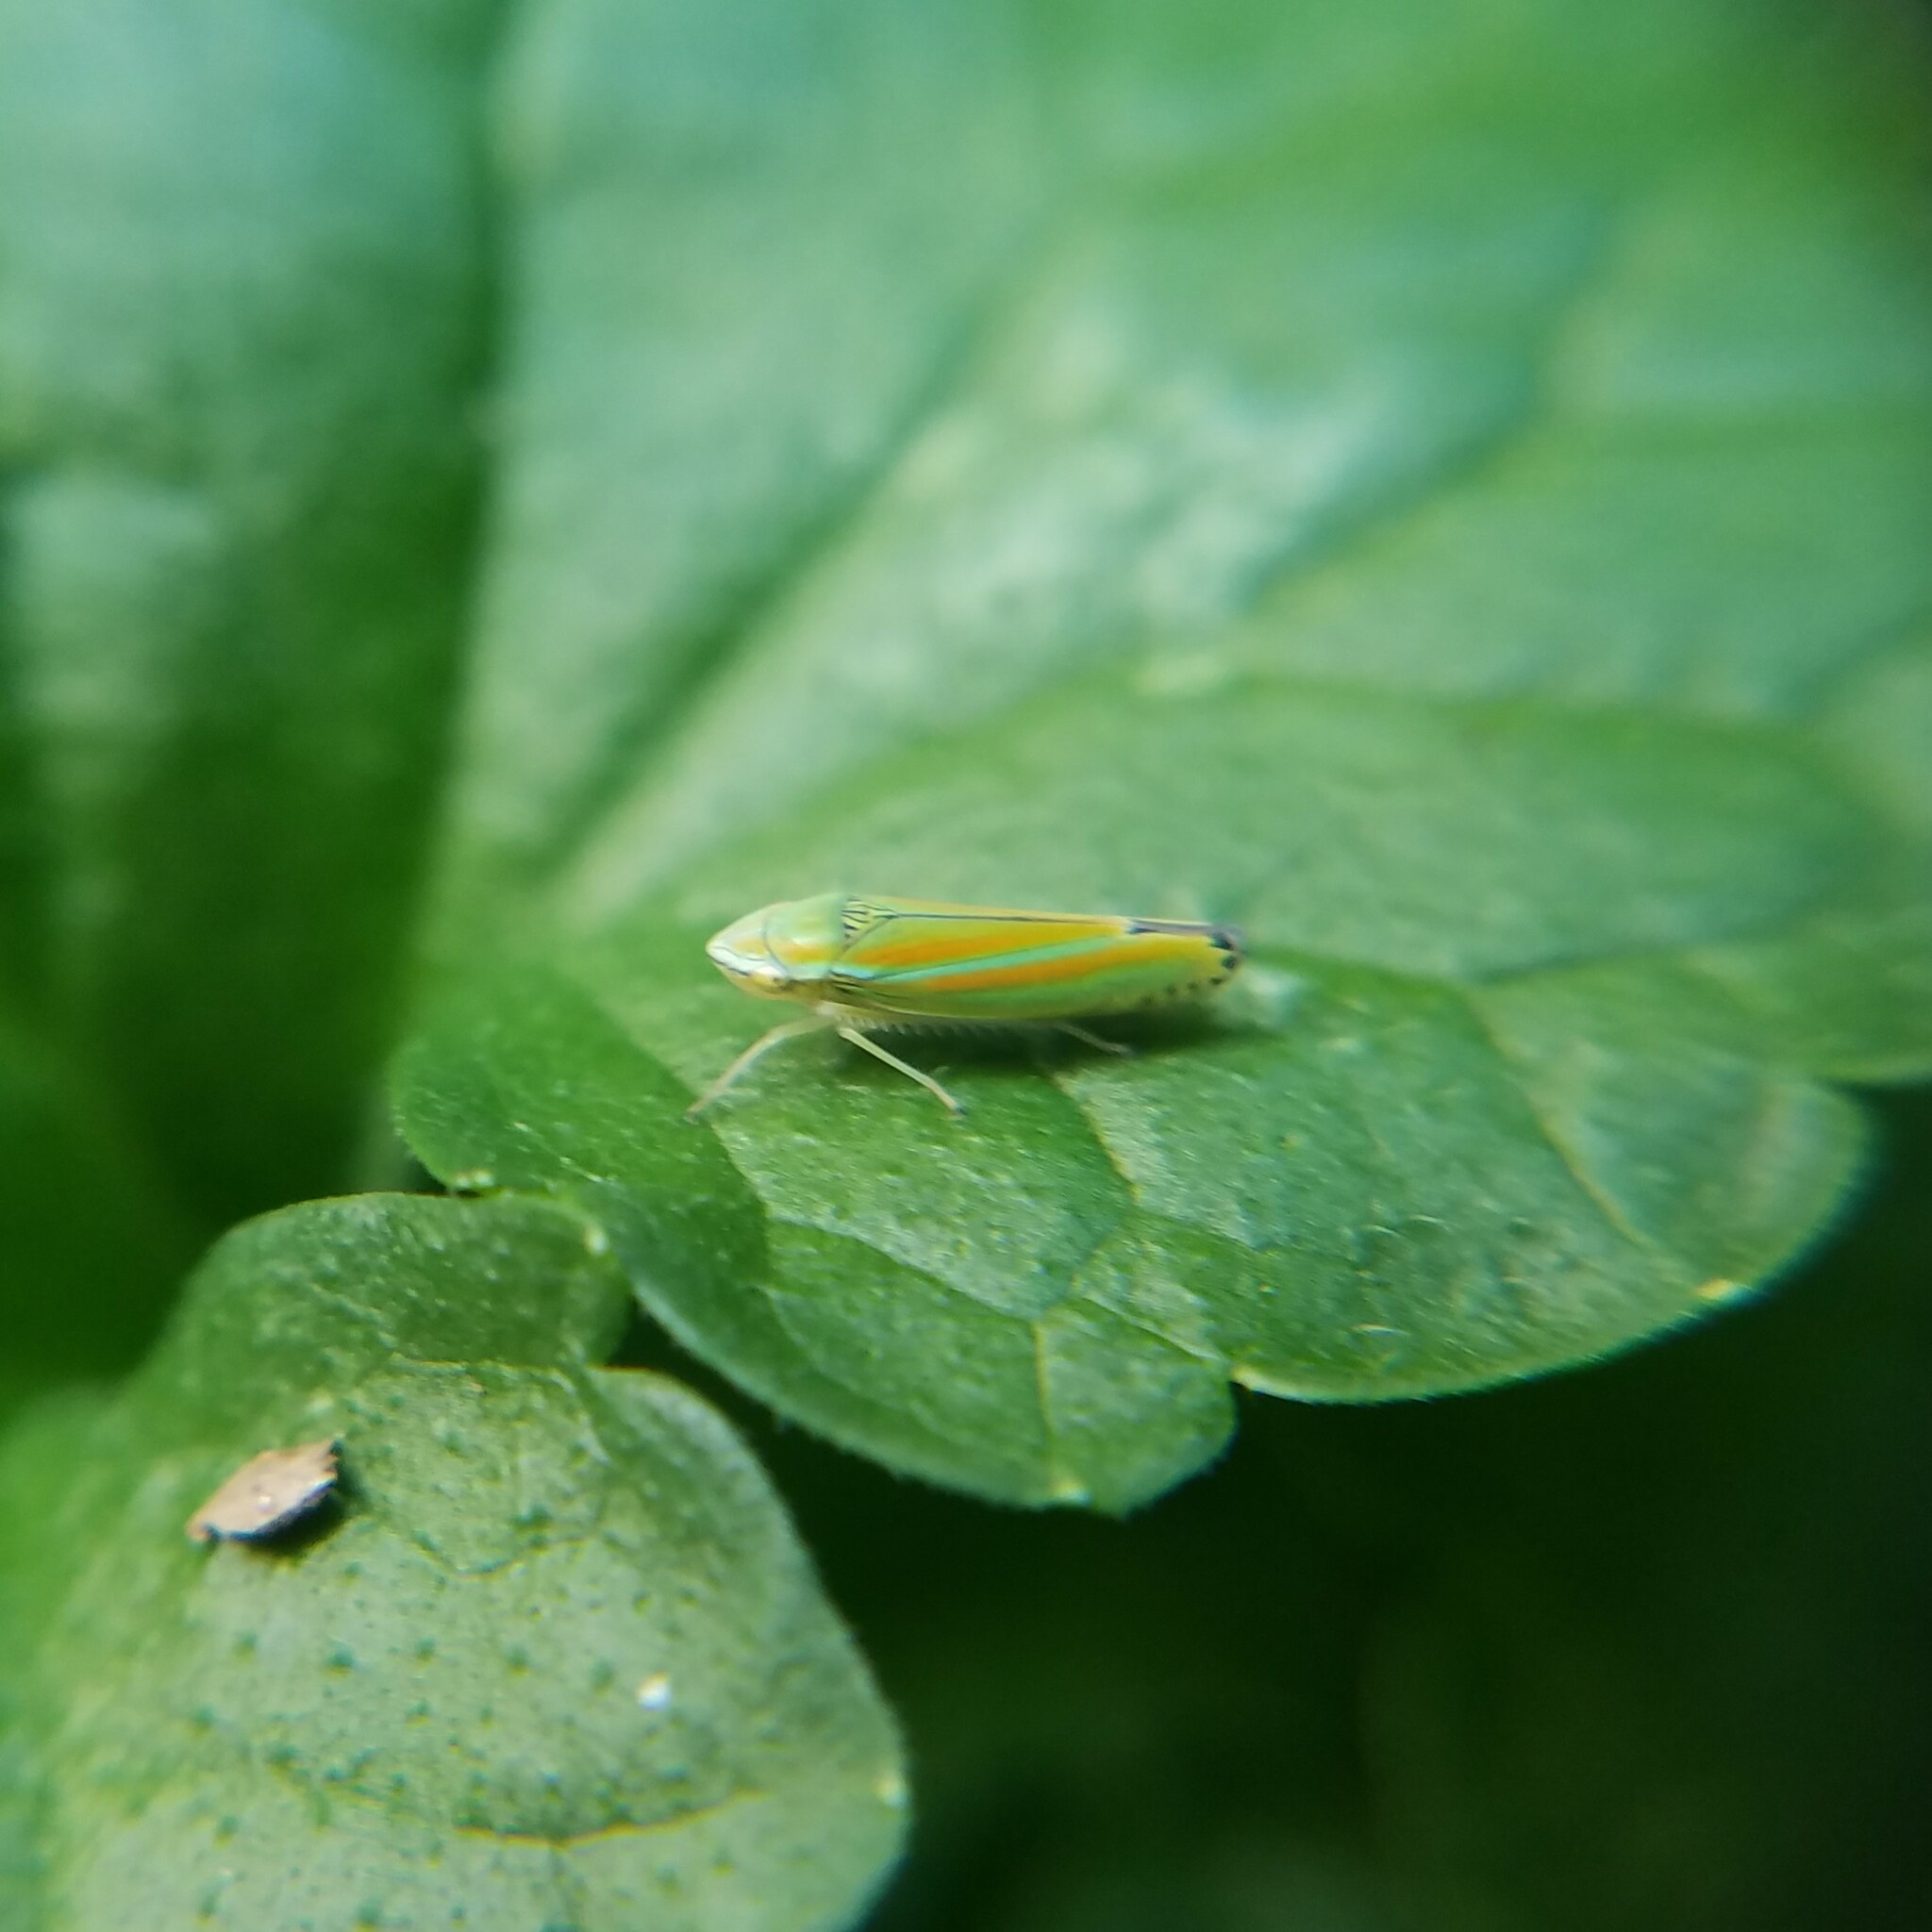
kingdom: Animalia
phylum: Arthropoda
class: Insecta
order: Hemiptera
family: Cicadellidae
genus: Graphocephala
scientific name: Graphocephala versuta
